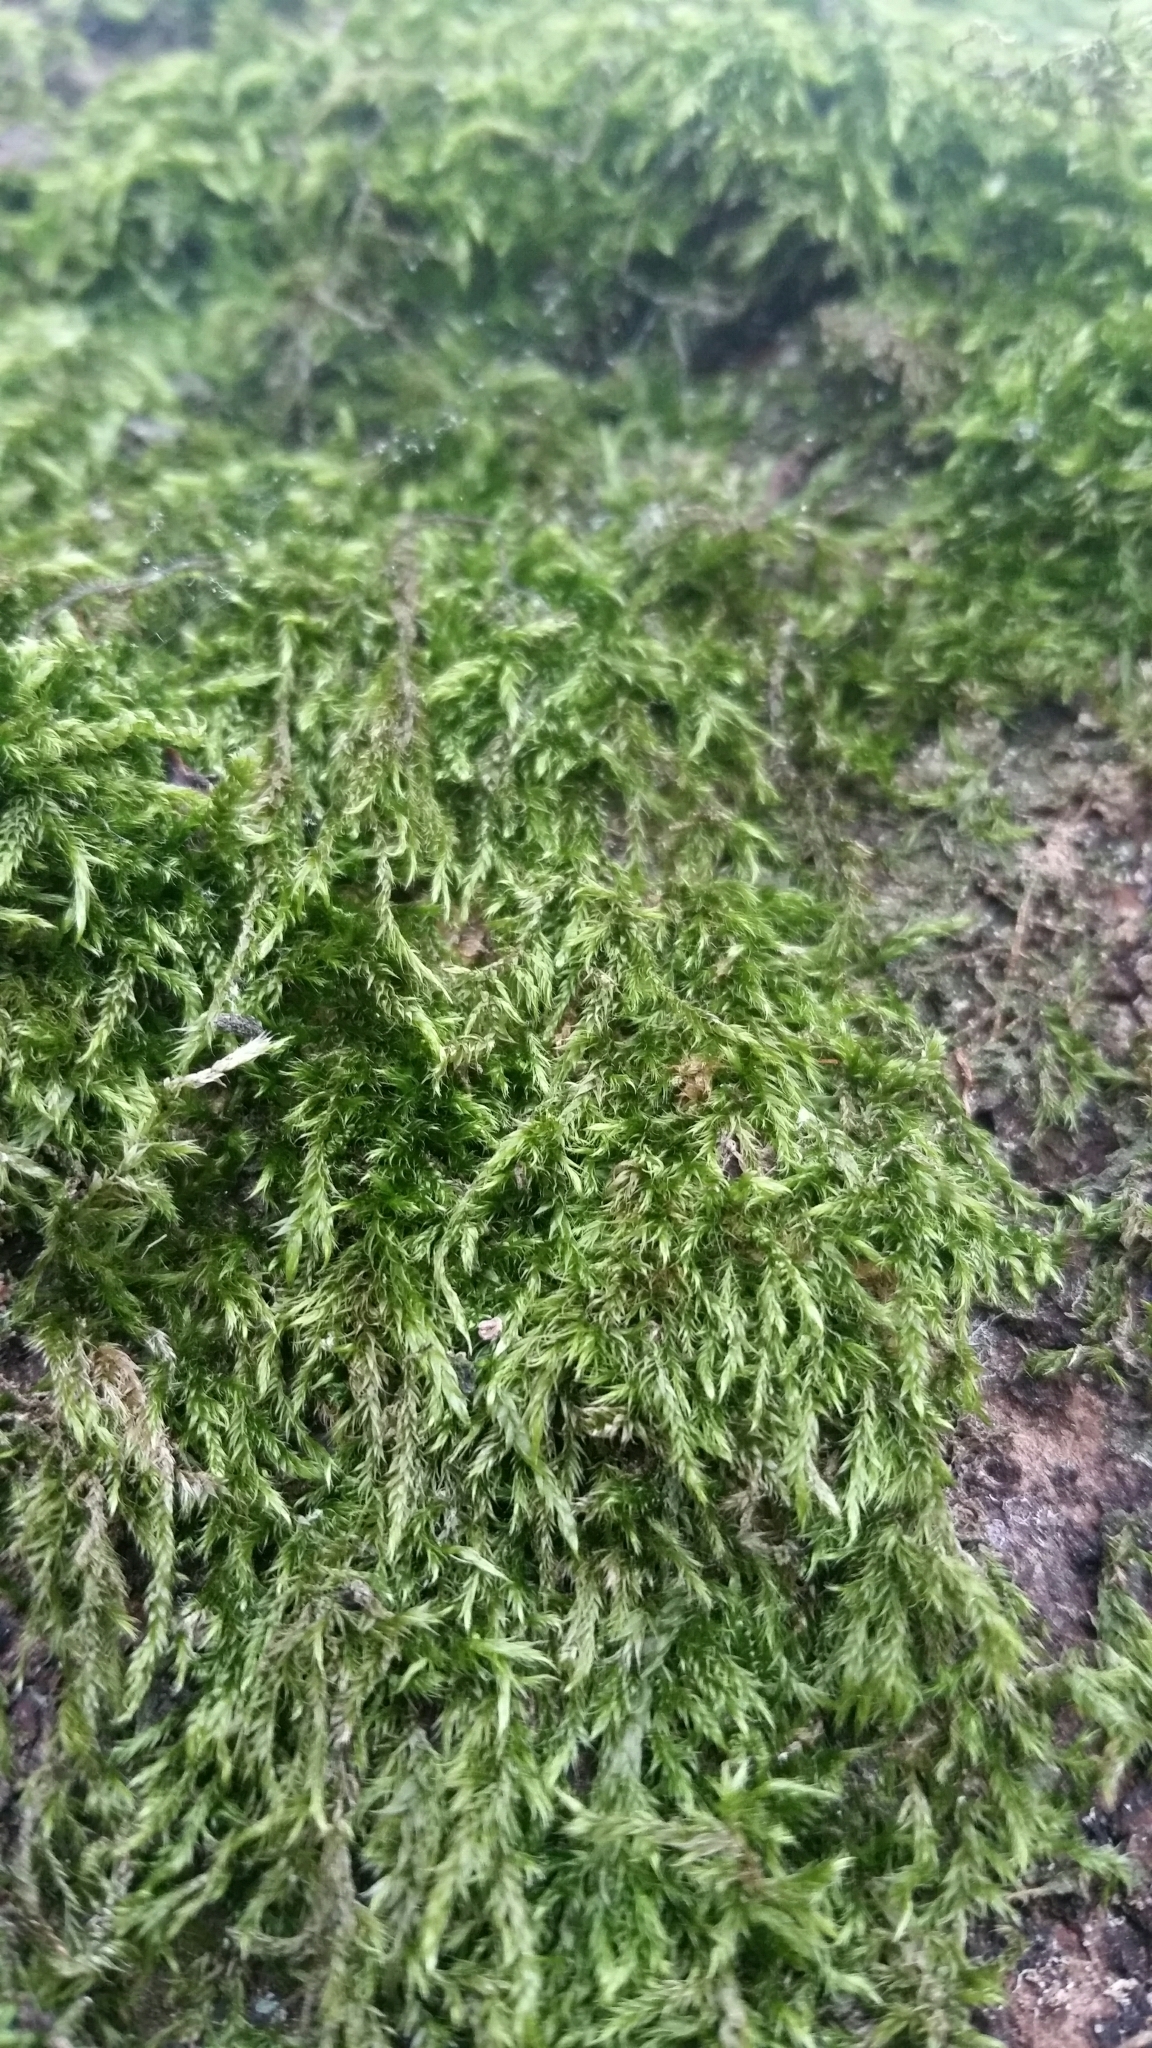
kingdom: Plantae
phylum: Bryophyta
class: Bryopsida
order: Hypnales
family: Hypnaceae
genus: Hypnum
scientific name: Hypnum cupressiforme
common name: Cypress-leaved plait-moss
